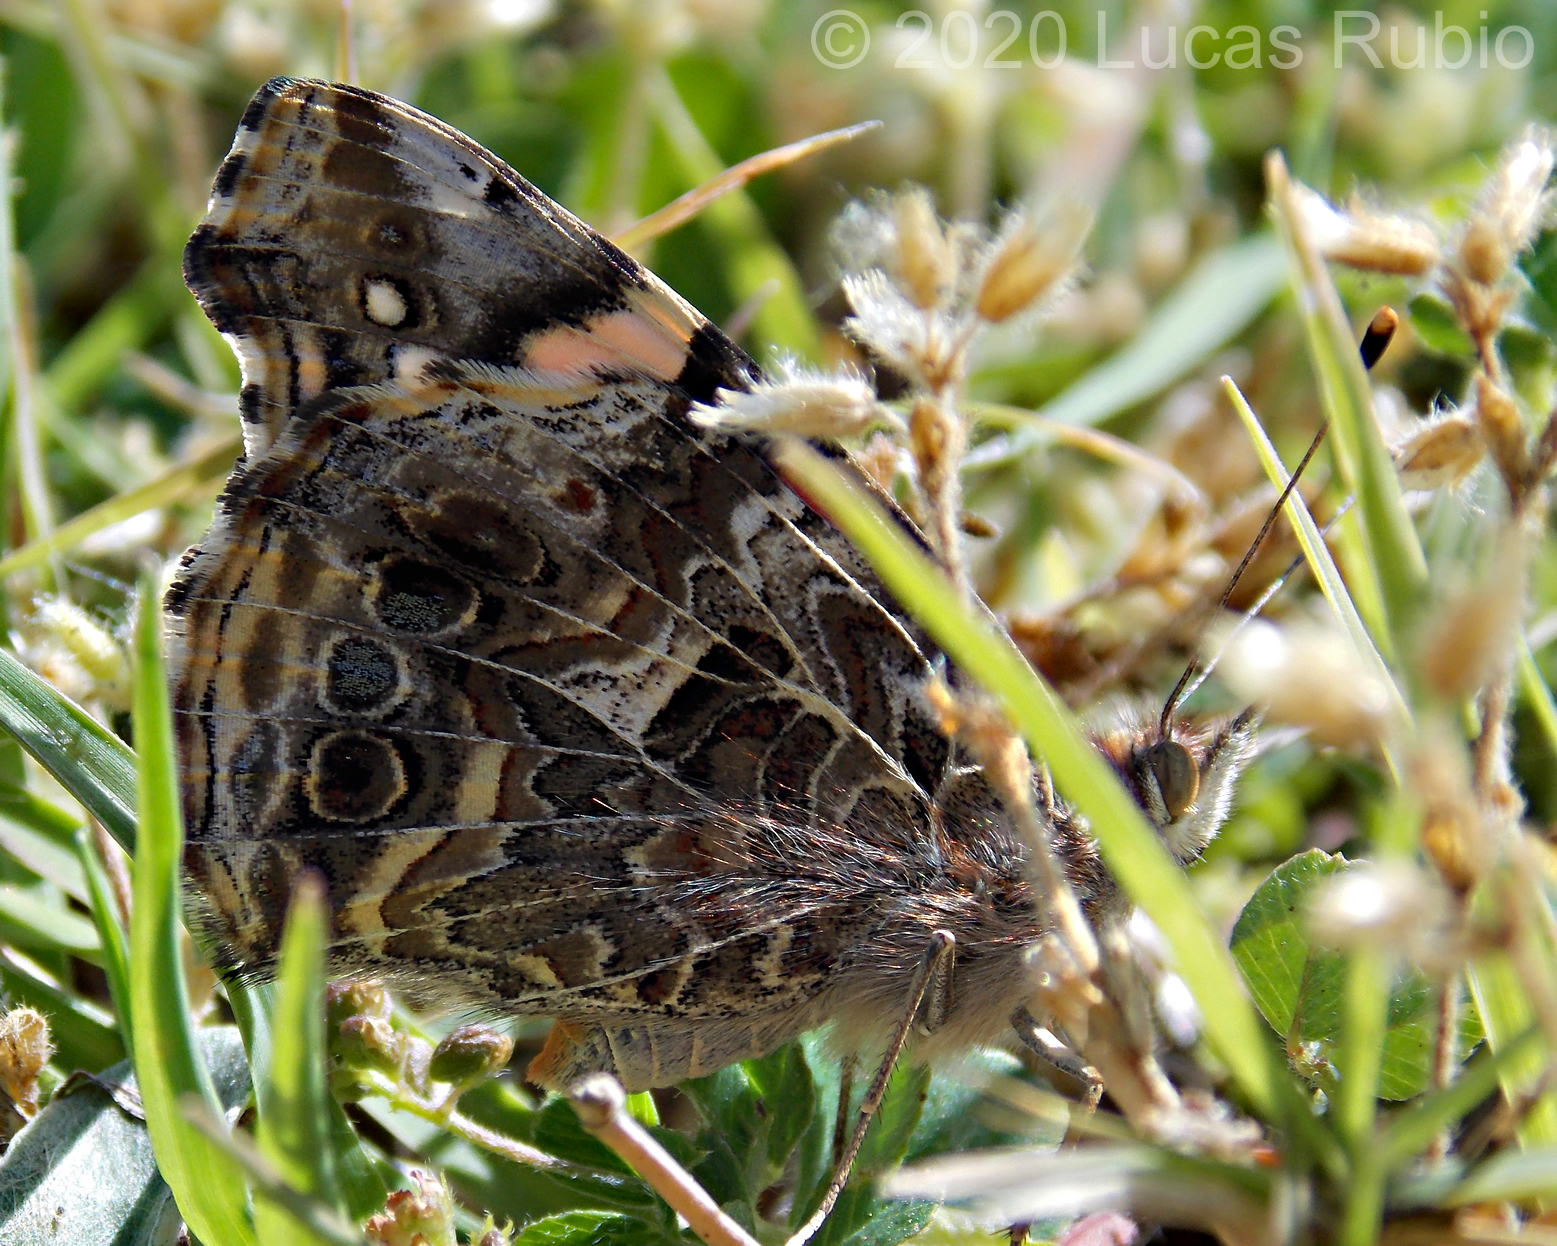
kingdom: Animalia
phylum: Arthropoda
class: Insecta
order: Lepidoptera
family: Nymphalidae
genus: Vanessa
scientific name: Vanessa carye
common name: Subtropical lady
